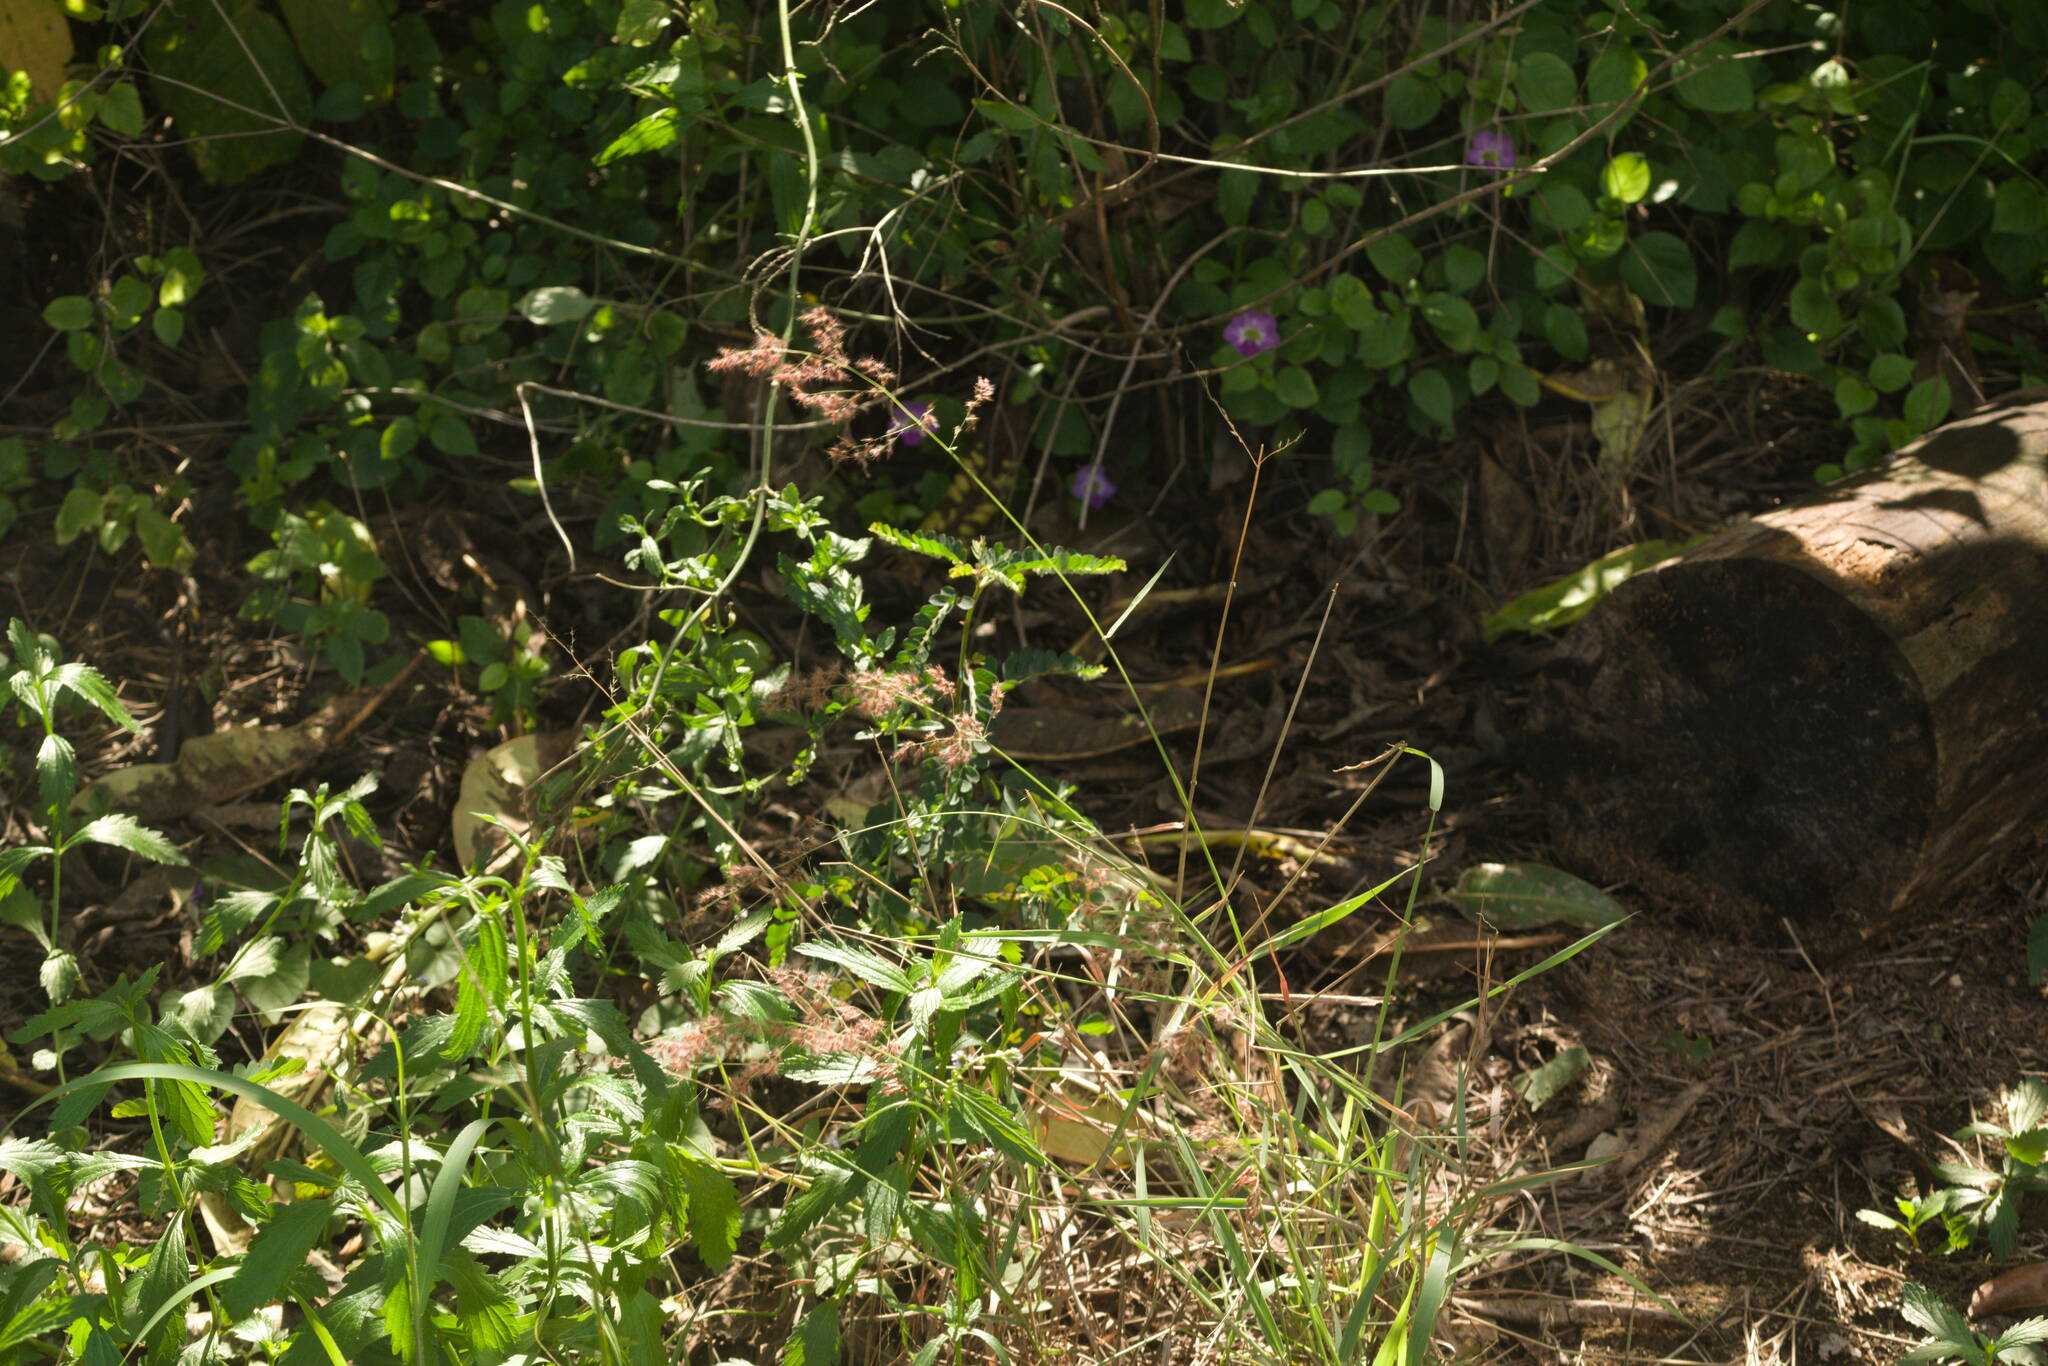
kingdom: Plantae
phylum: Tracheophyta
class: Liliopsida
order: Poales
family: Poaceae
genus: Melinis
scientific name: Melinis repens
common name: Rose natal grass
